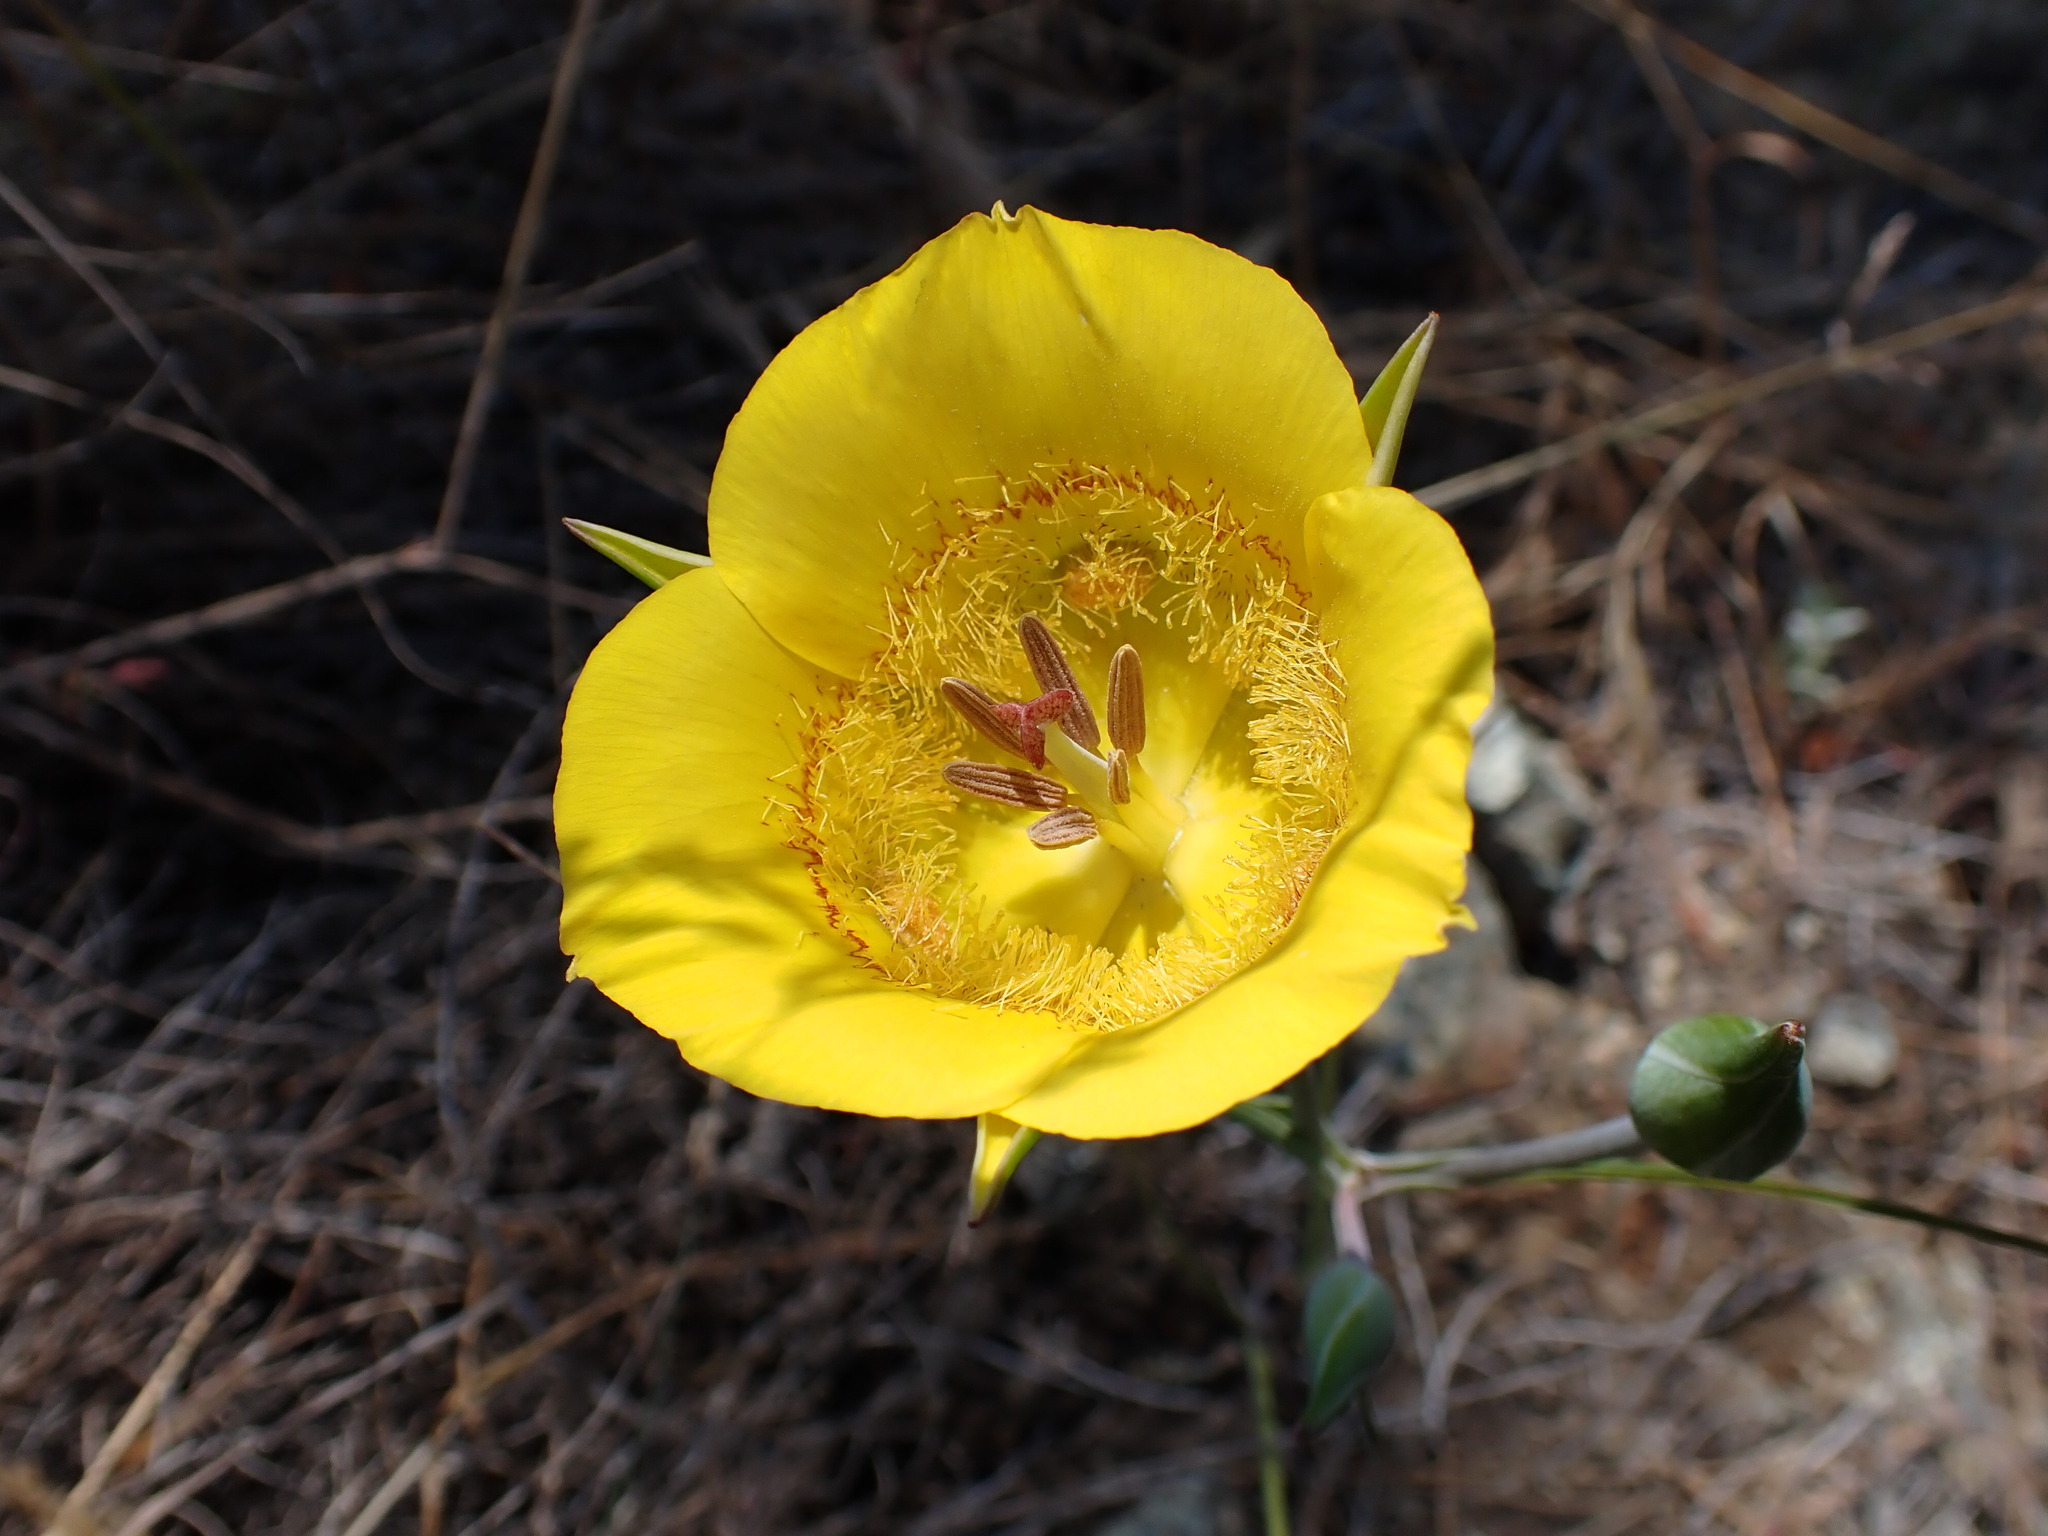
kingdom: Plantae
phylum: Tracheophyta
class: Liliopsida
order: Liliales
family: Liliaceae
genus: Calochortus
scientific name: Calochortus clavatus
